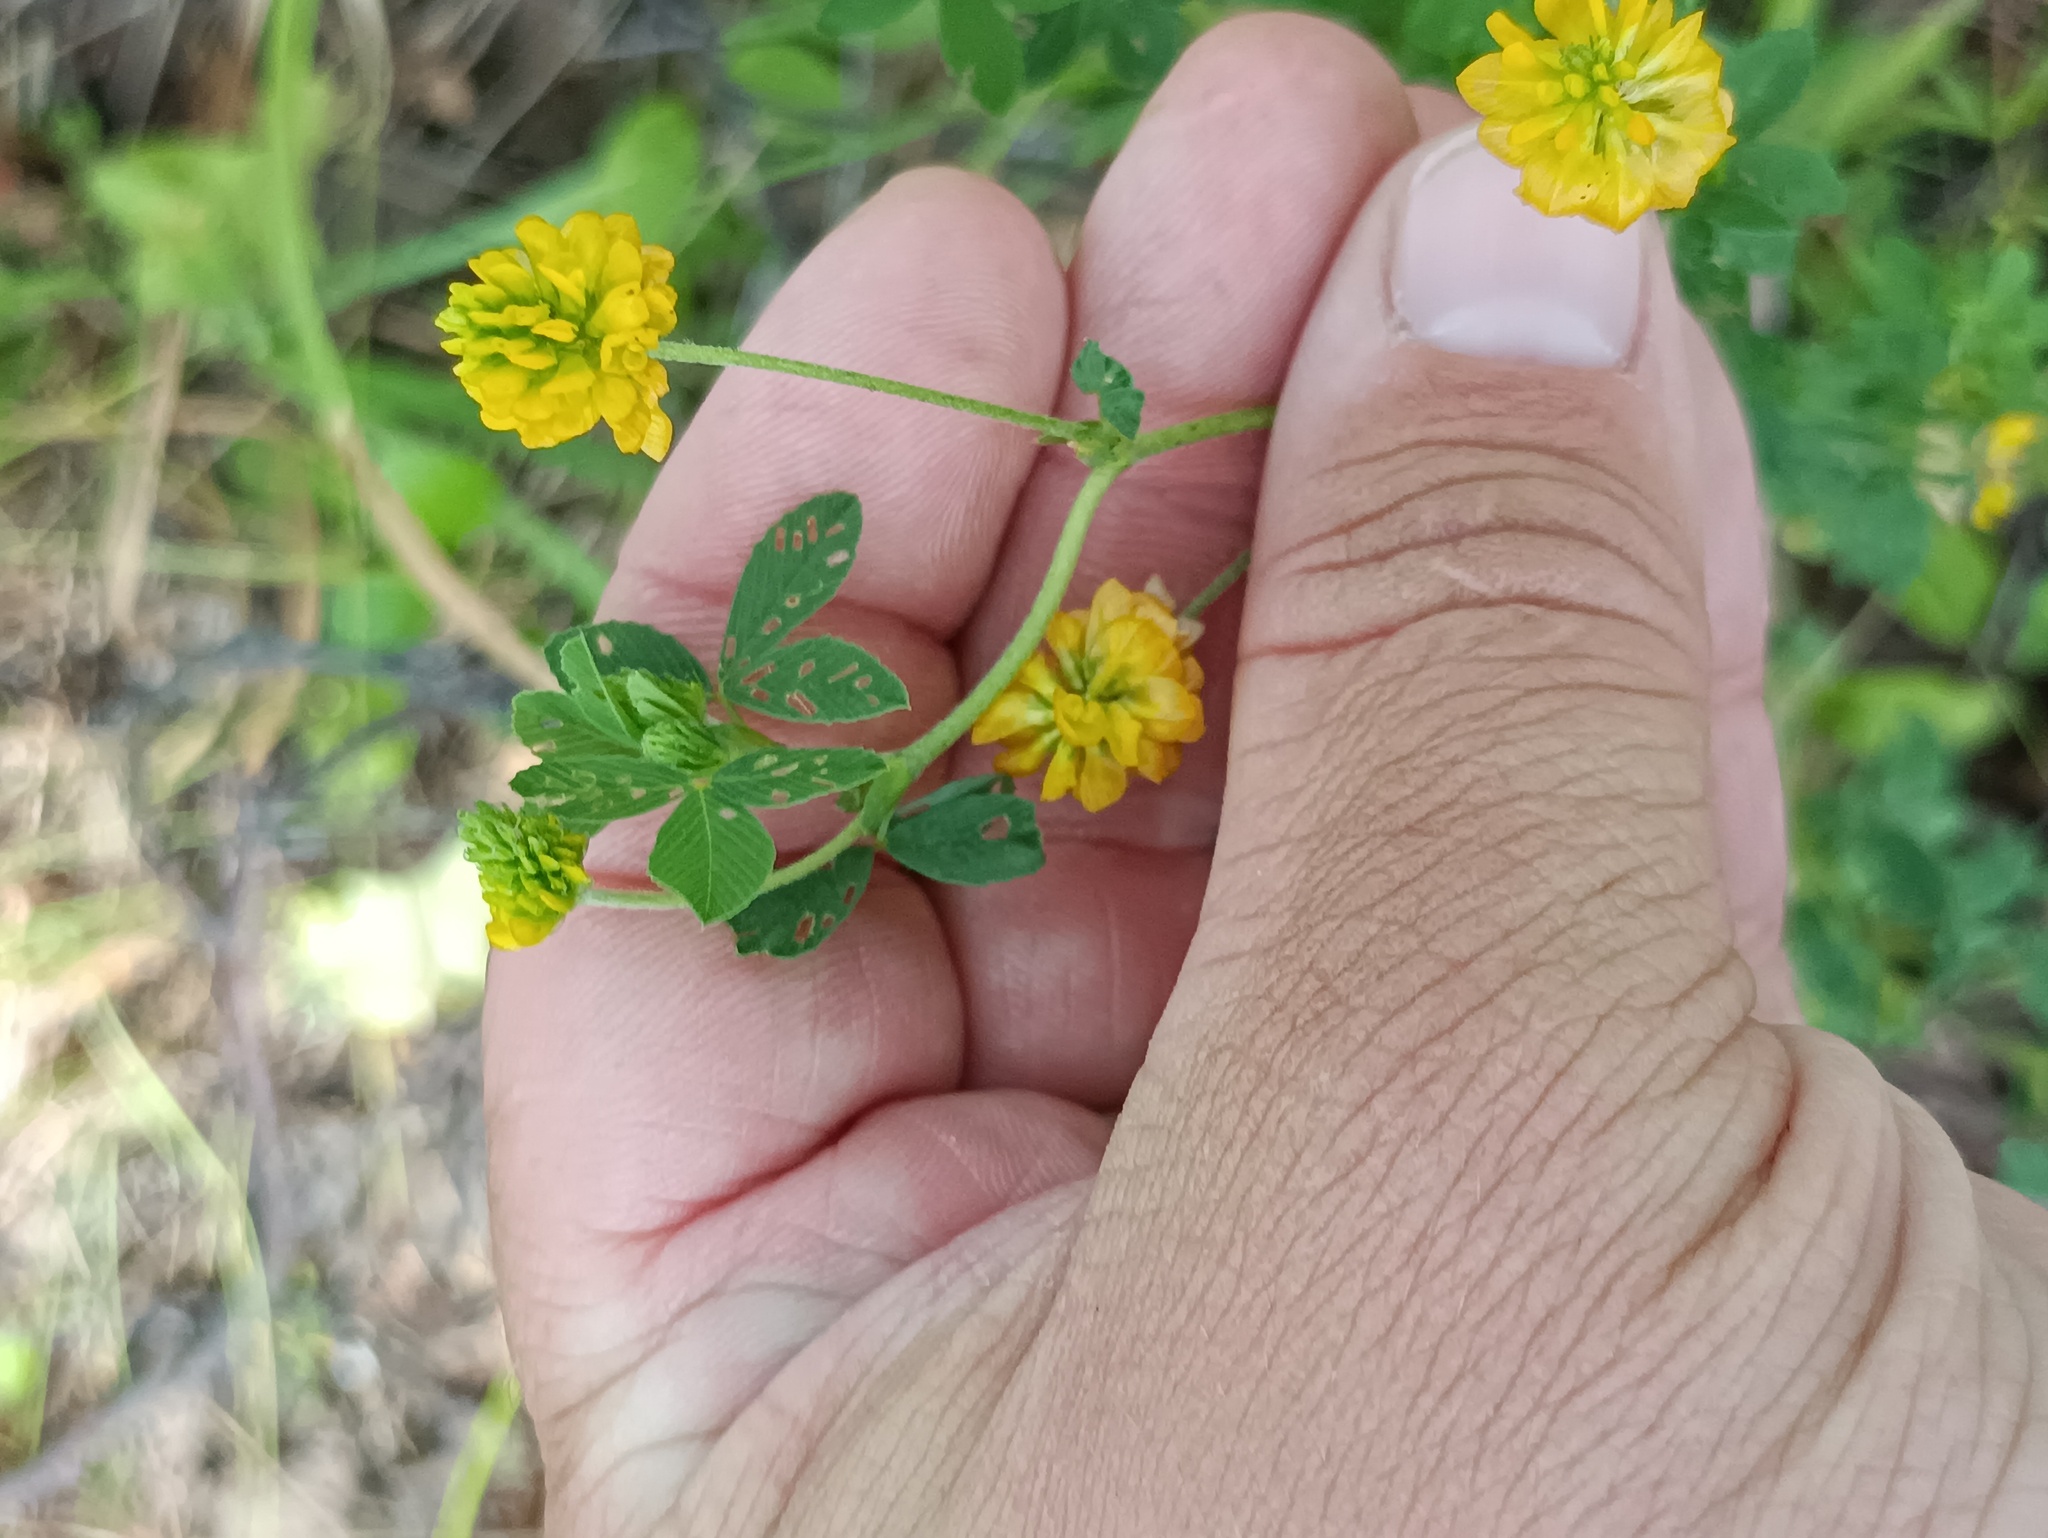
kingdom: Plantae
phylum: Tracheophyta
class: Magnoliopsida
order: Fabales
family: Fabaceae
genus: Trifolium
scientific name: Trifolium aureum
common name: Golden clover
